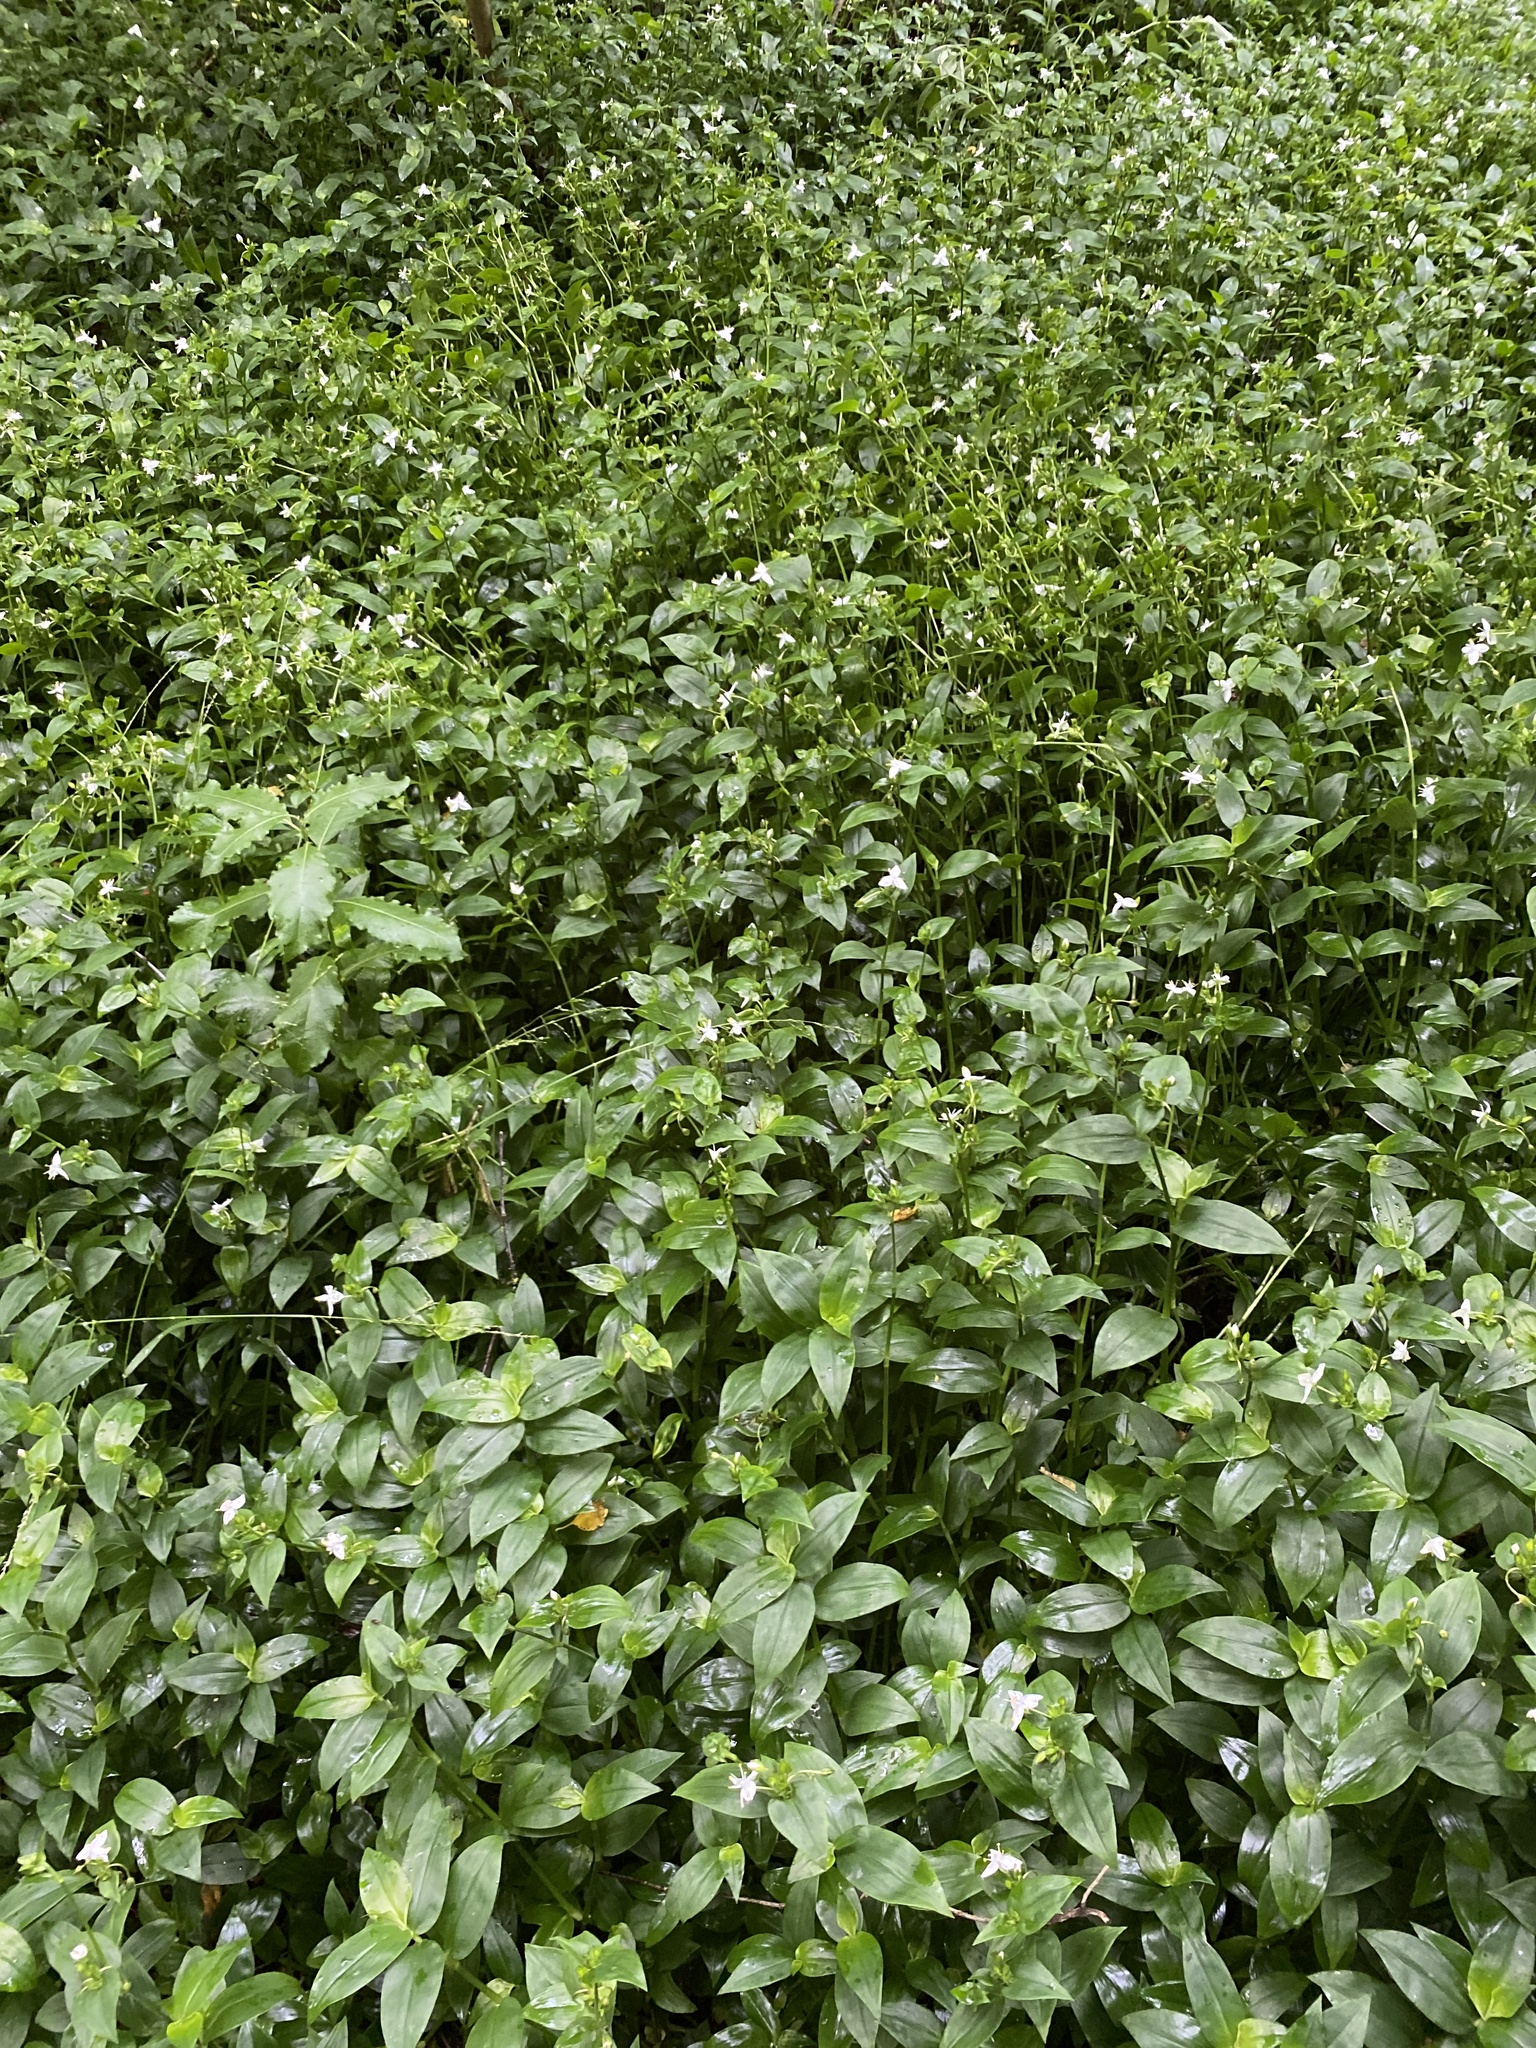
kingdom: Plantae
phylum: Tracheophyta
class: Liliopsida
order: Commelinales
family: Commelinaceae
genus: Tradescantia
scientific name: Tradescantia fluminensis
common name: Wandering-jew
